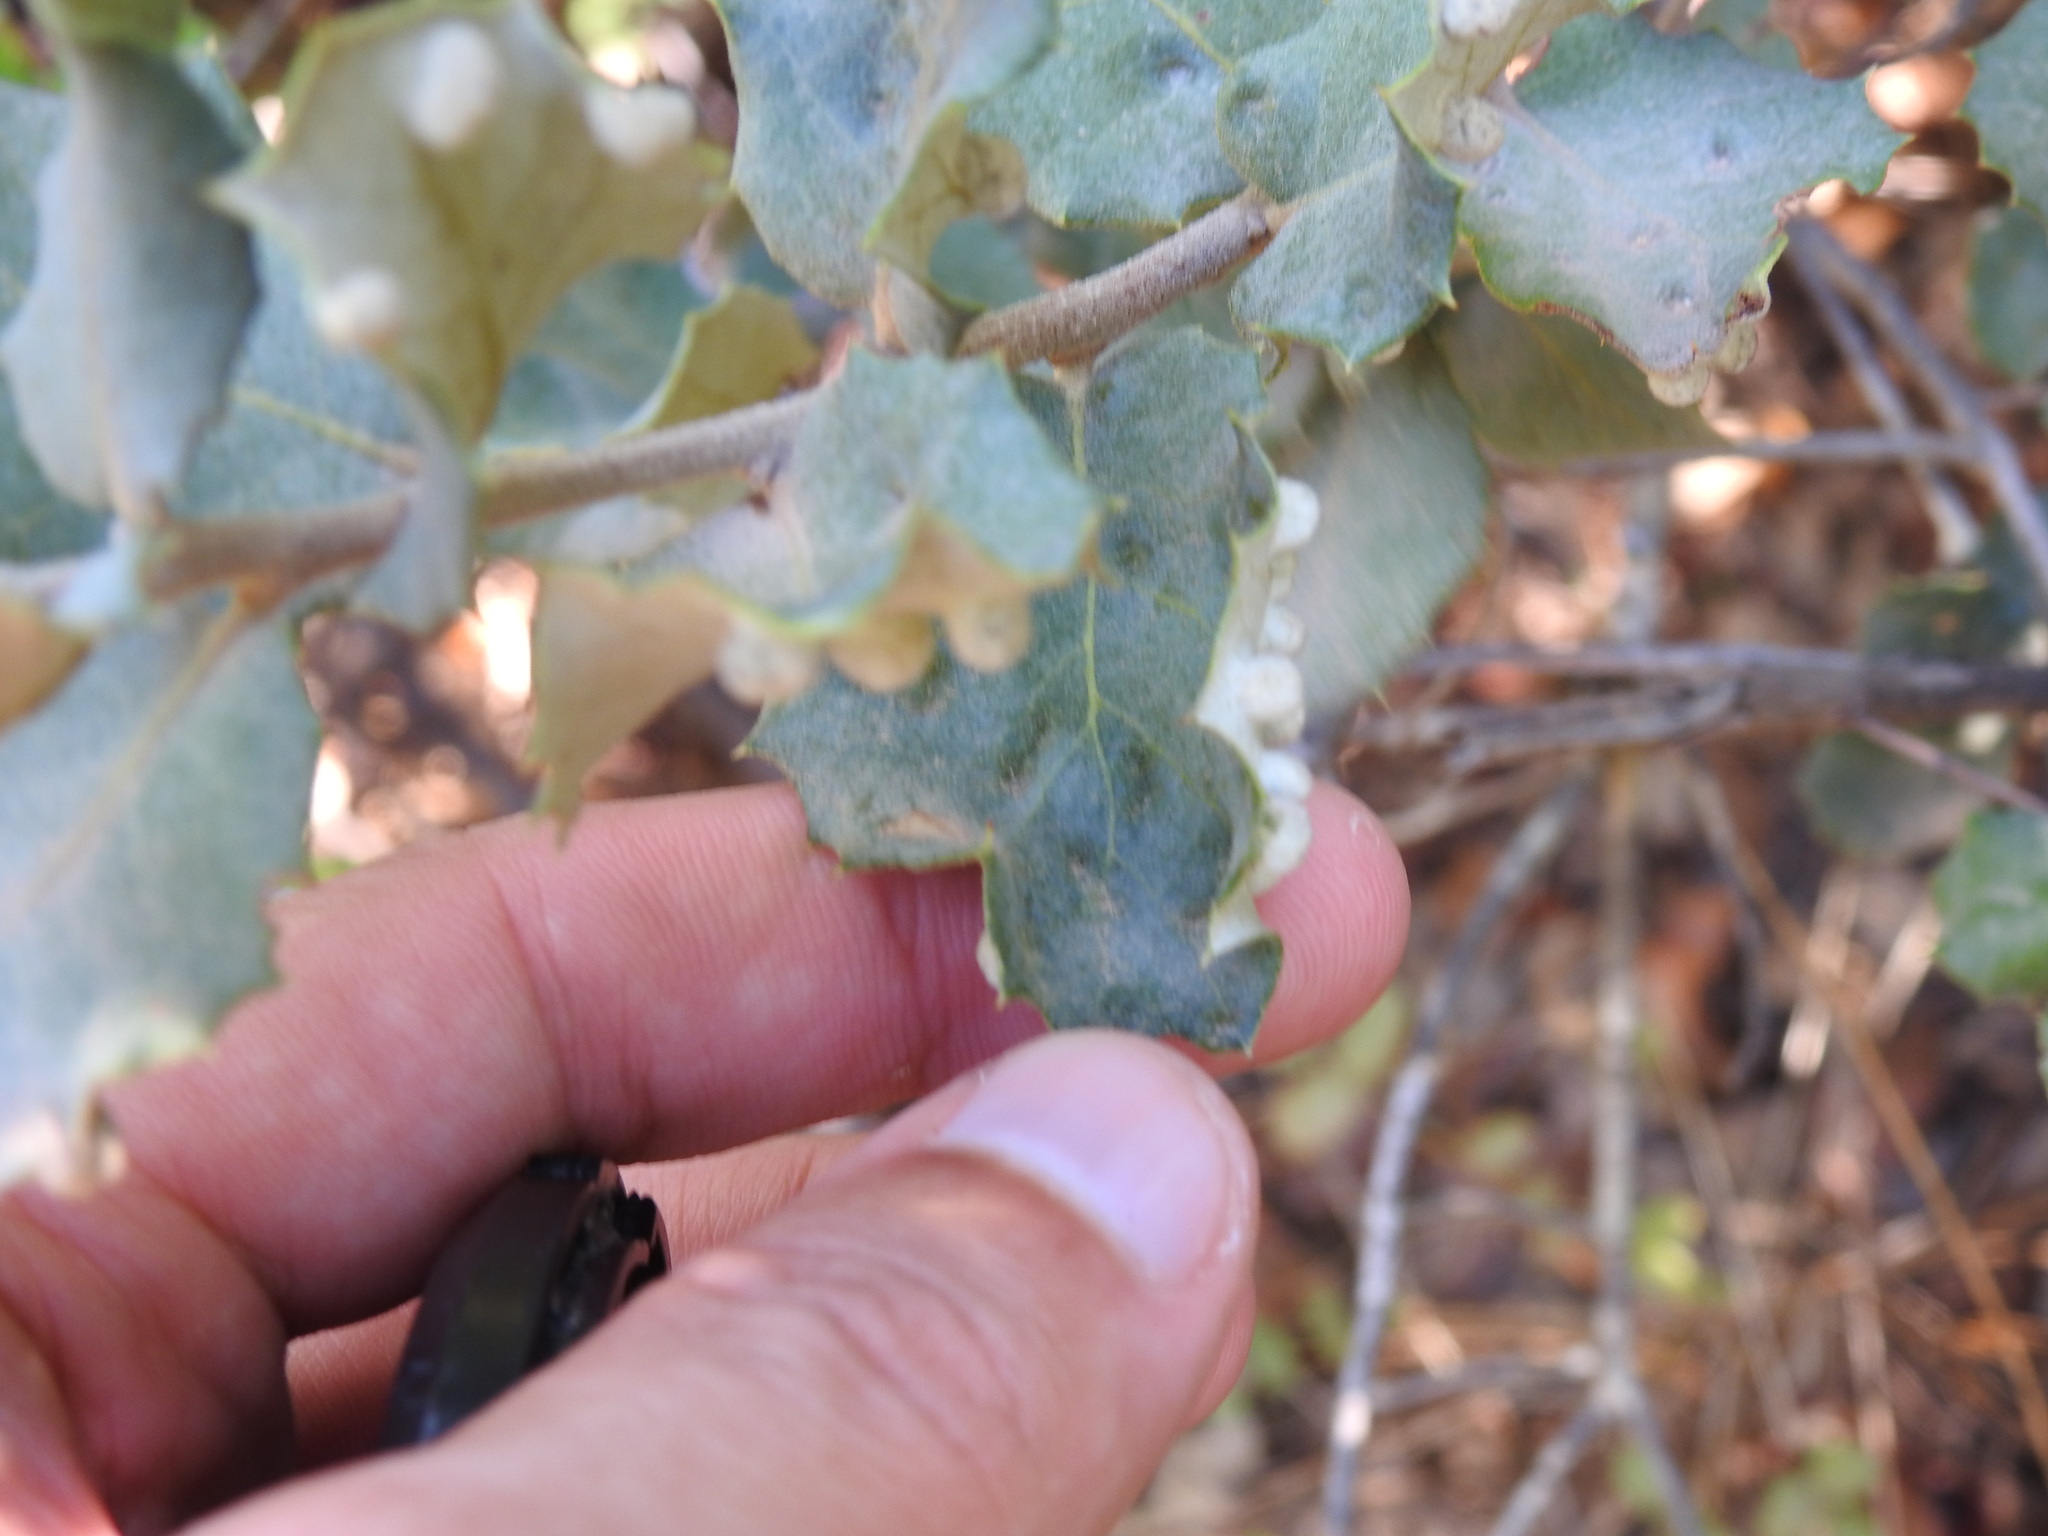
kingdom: Animalia
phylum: Arthropoda
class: Insecta
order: Diptera
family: Cecidomyiidae
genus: Dryomyia
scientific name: Dryomyia lichtensteinii
